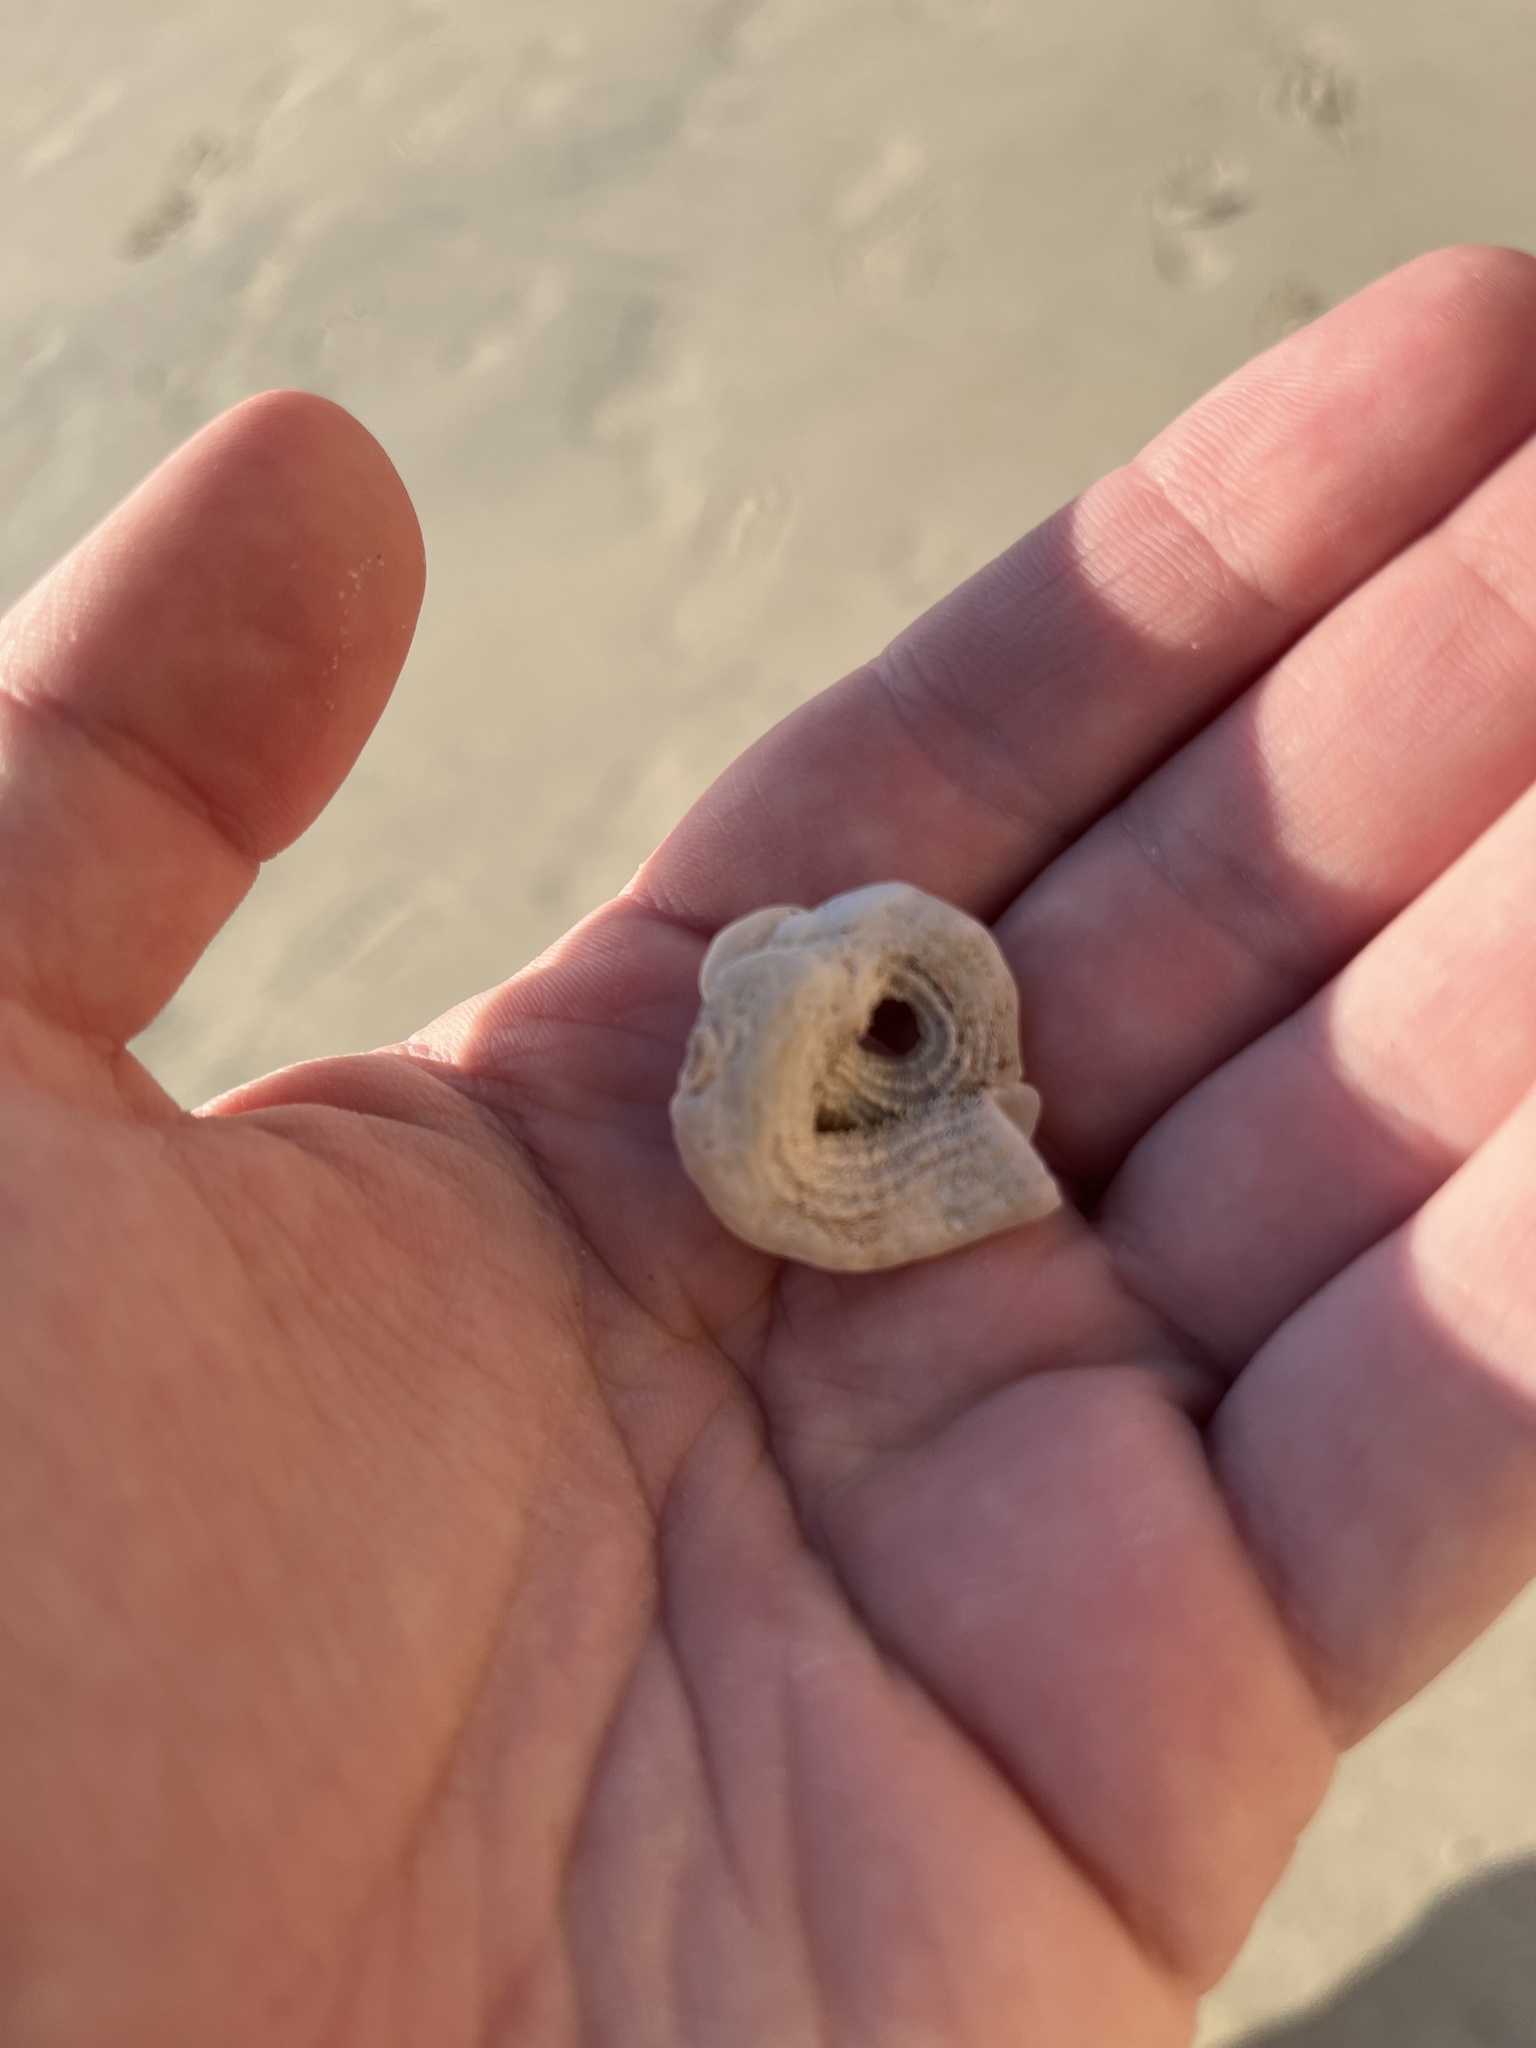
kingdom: Animalia
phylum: Mollusca
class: Gastropoda
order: Littorinimorpha
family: Vermetidae
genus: Thylacodes
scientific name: Thylacodes squamigerus
